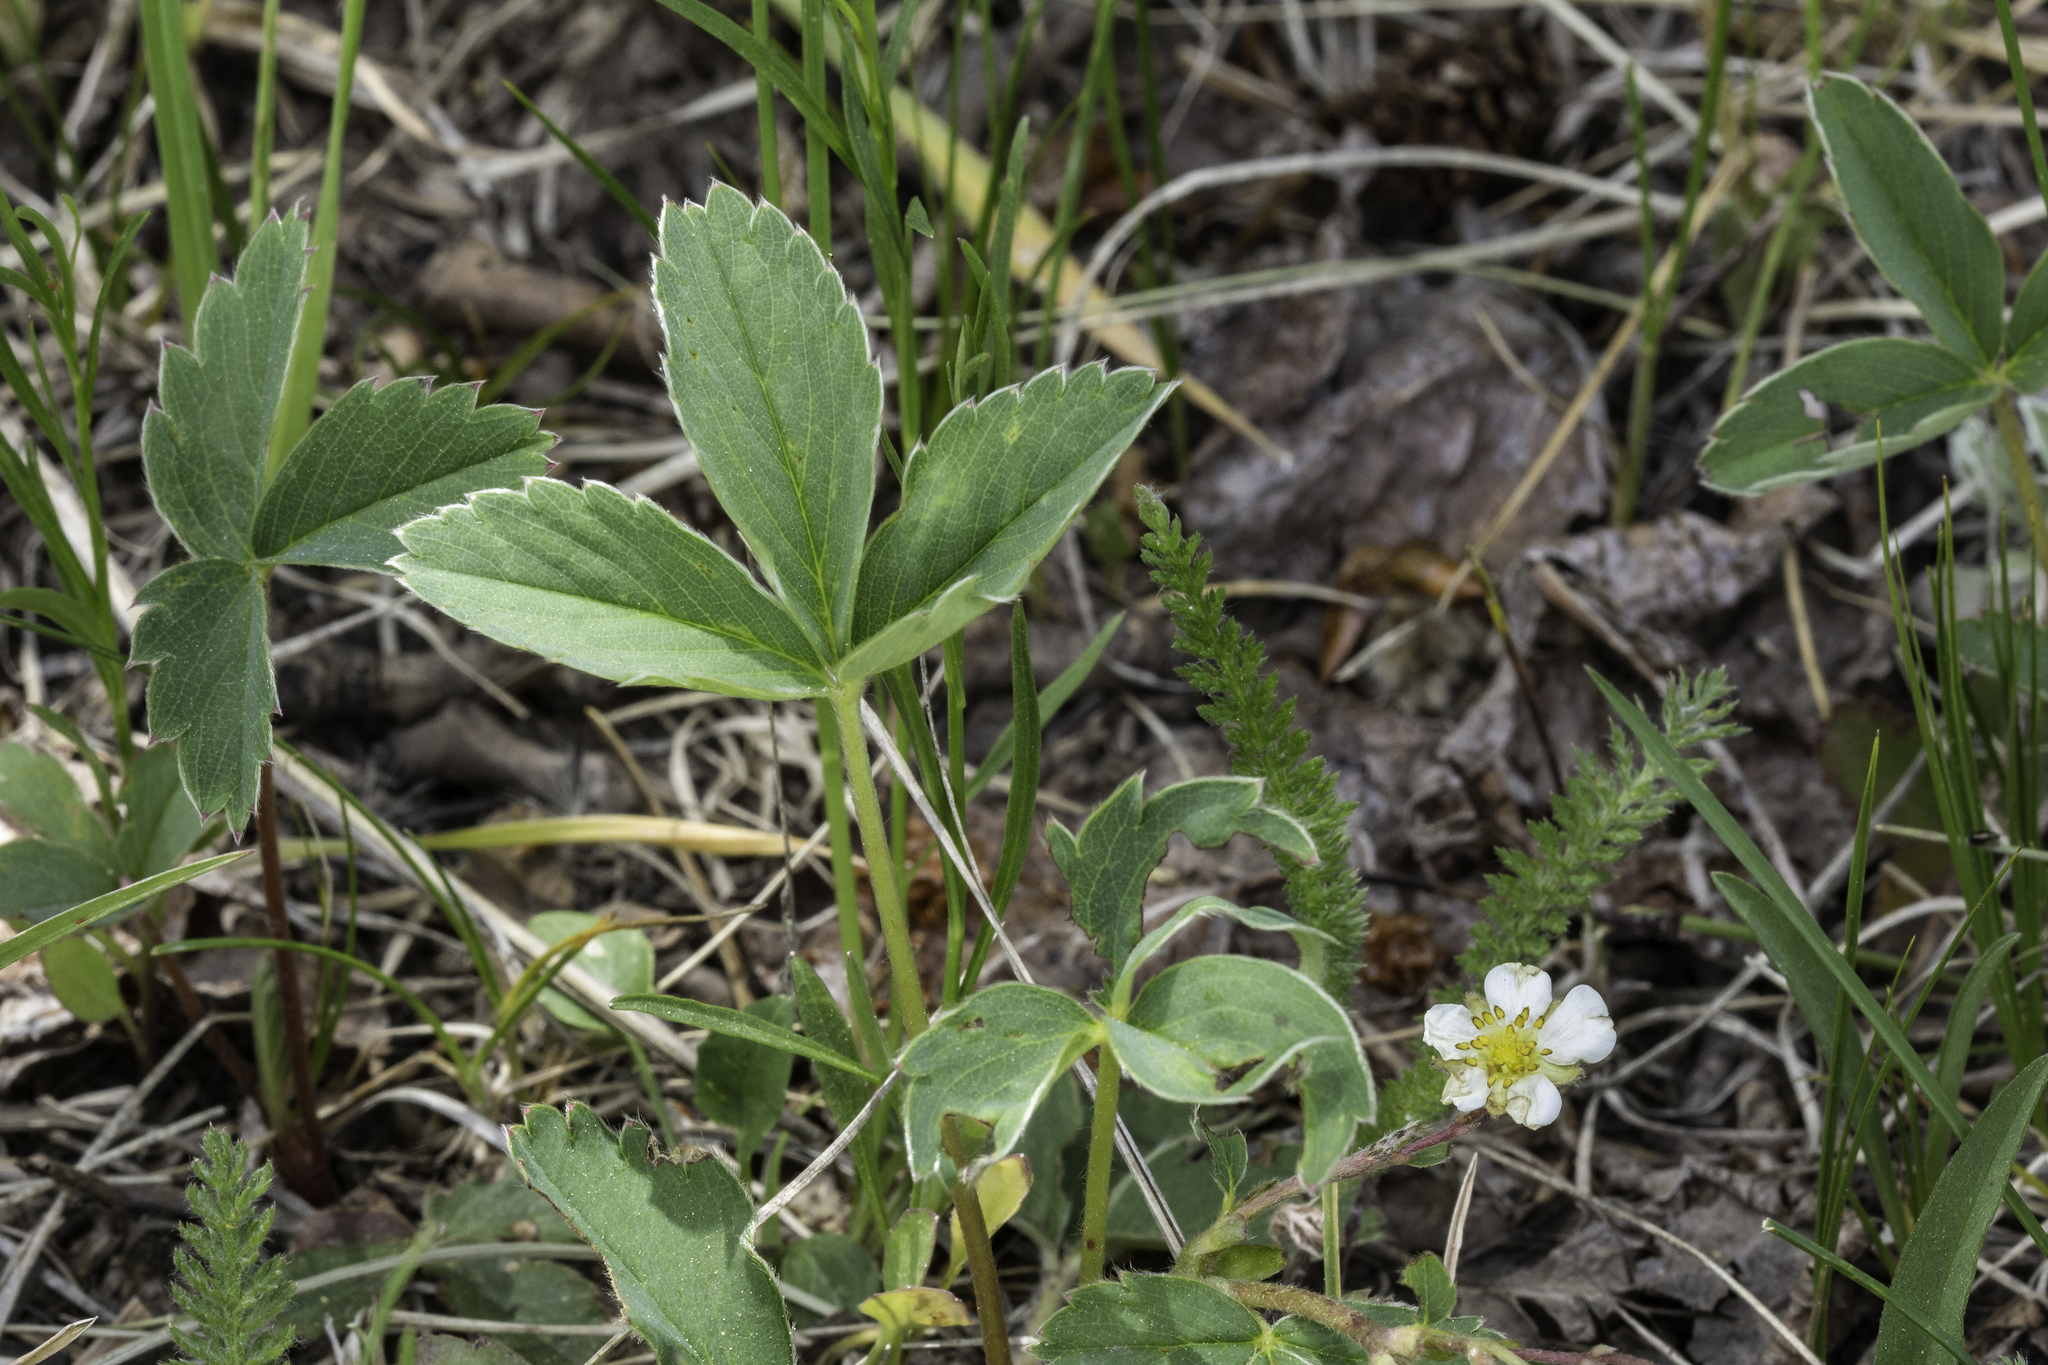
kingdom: Plantae
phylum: Tracheophyta
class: Magnoliopsida
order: Rosales
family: Rosaceae
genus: Fragaria
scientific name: Fragaria virginiana
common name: Thickleaved wild strawberry
